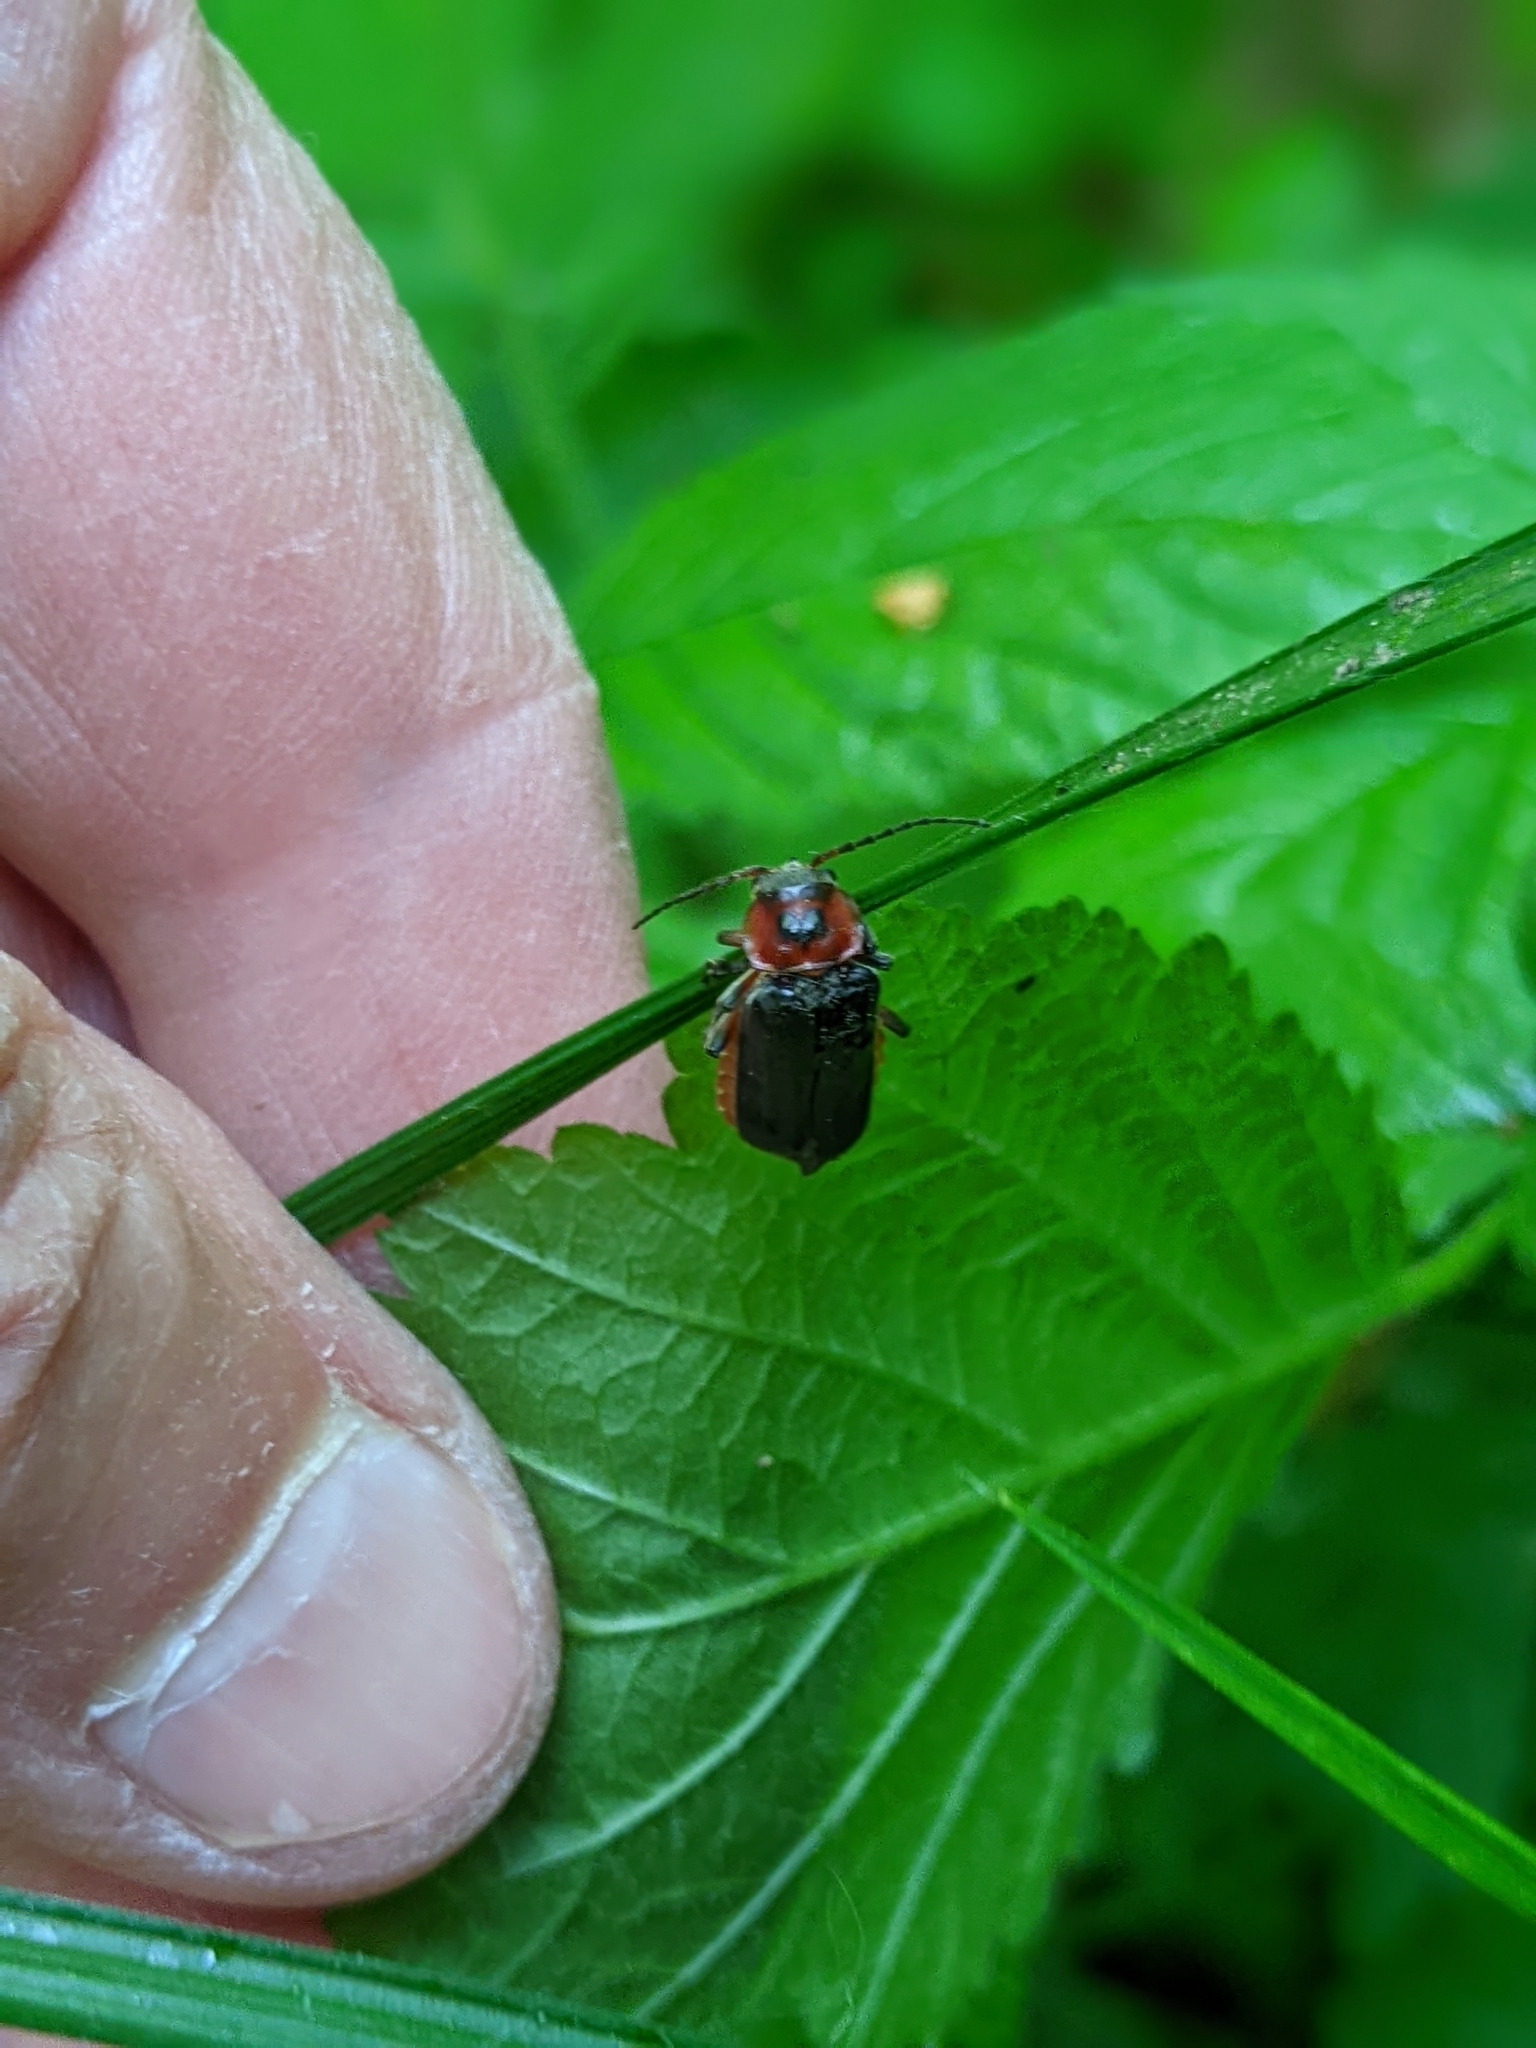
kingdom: Animalia
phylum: Arthropoda
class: Insecta
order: Coleoptera
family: Cantharidae
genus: Cantharis
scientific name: Cantharis rustica
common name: Soldier beetle
